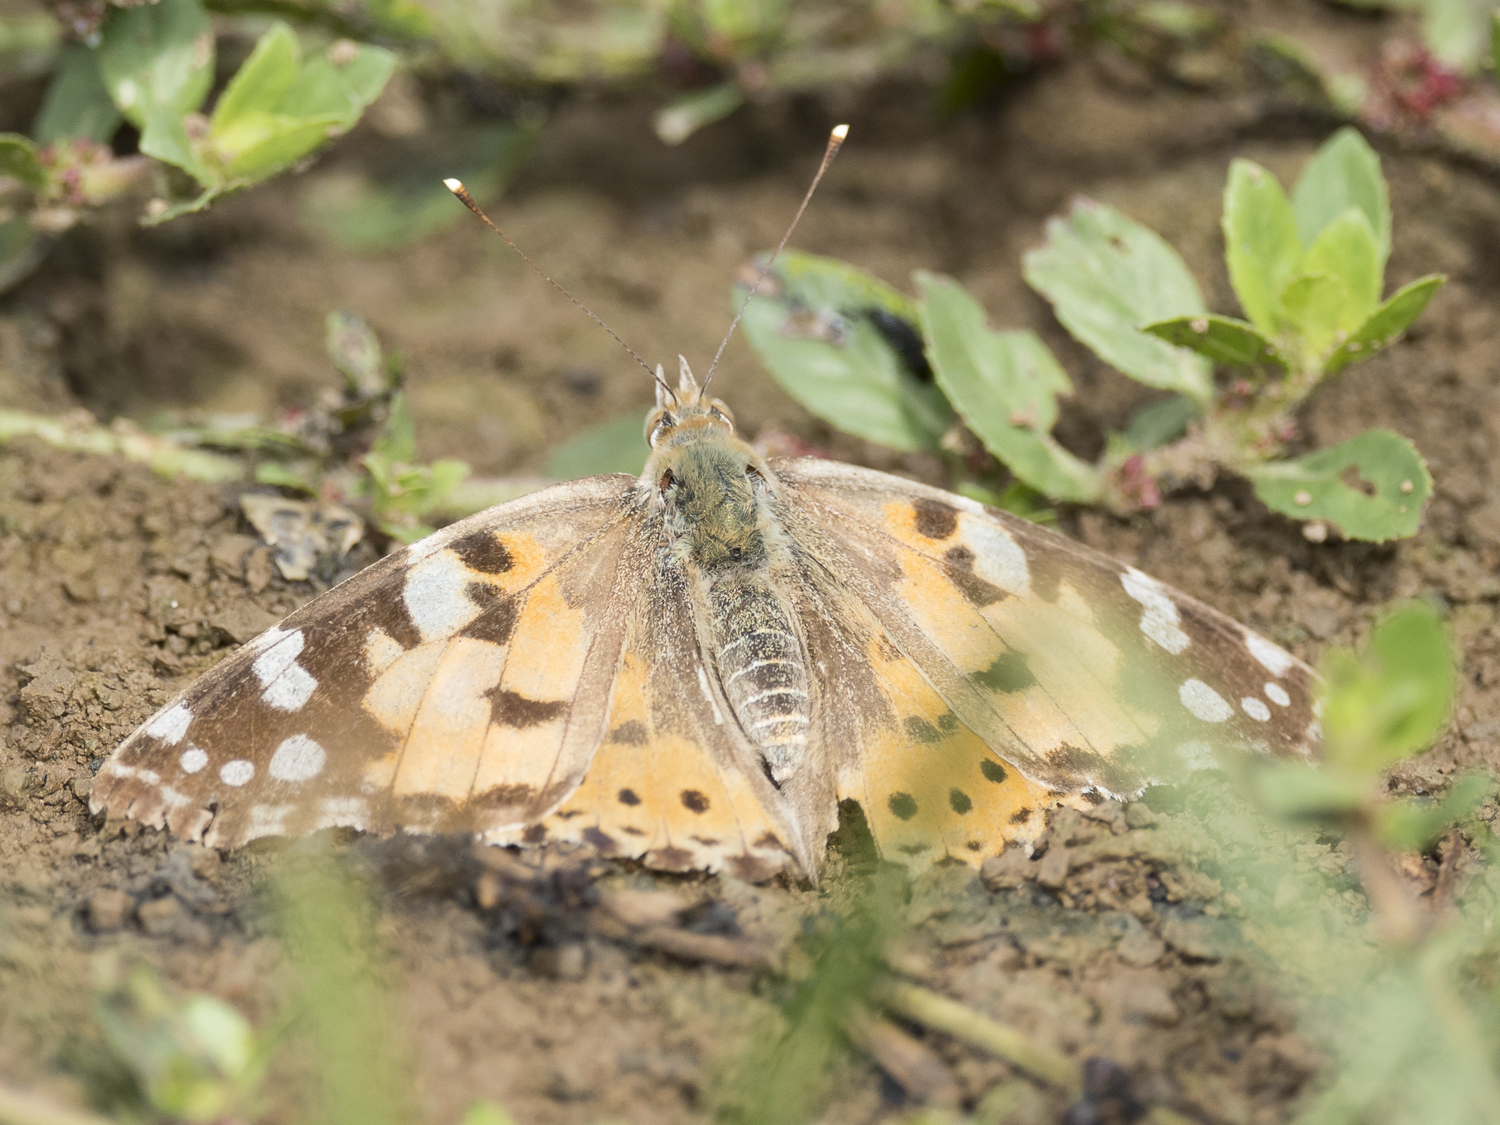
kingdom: Animalia
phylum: Arthropoda
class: Insecta
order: Lepidoptera
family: Nymphalidae
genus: Vanessa
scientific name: Vanessa cardui
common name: Painted lady
